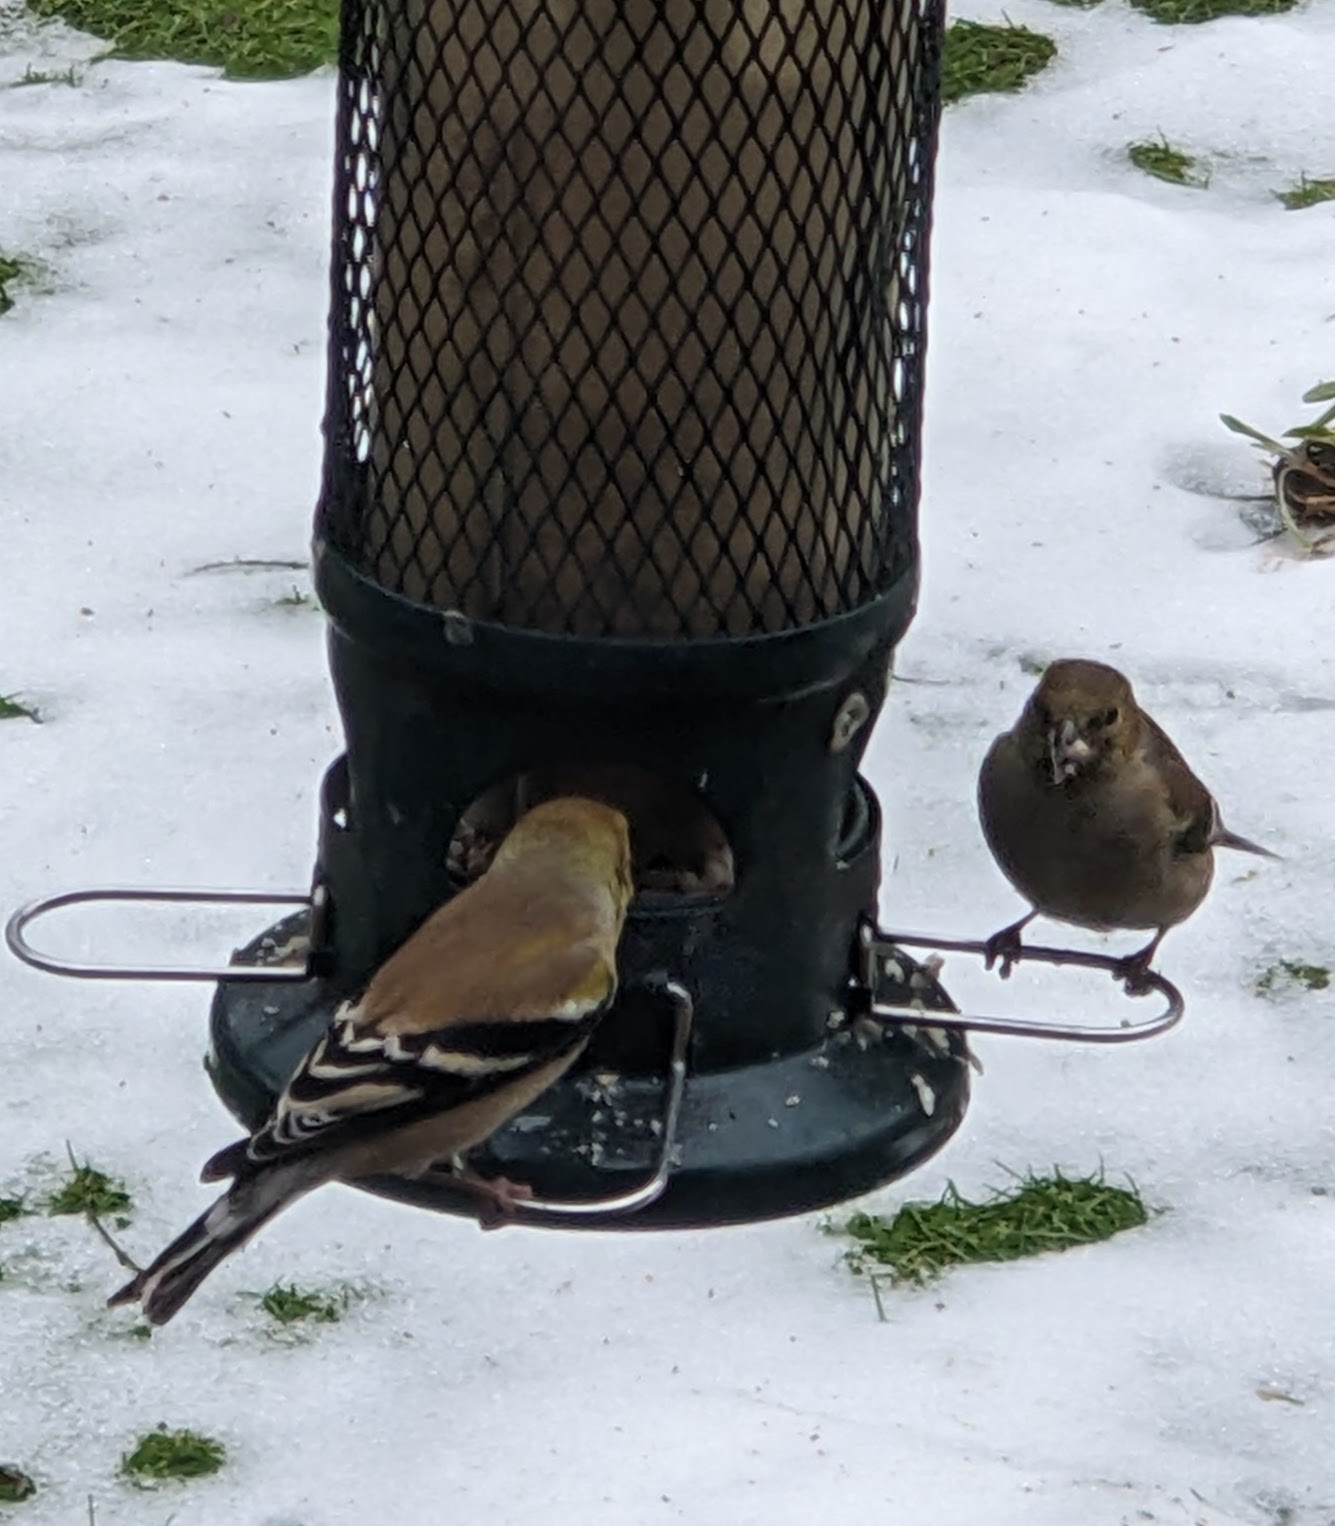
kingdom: Animalia
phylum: Chordata
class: Aves
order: Passeriformes
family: Fringillidae
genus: Spinus
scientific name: Spinus tristis
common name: American goldfinch
